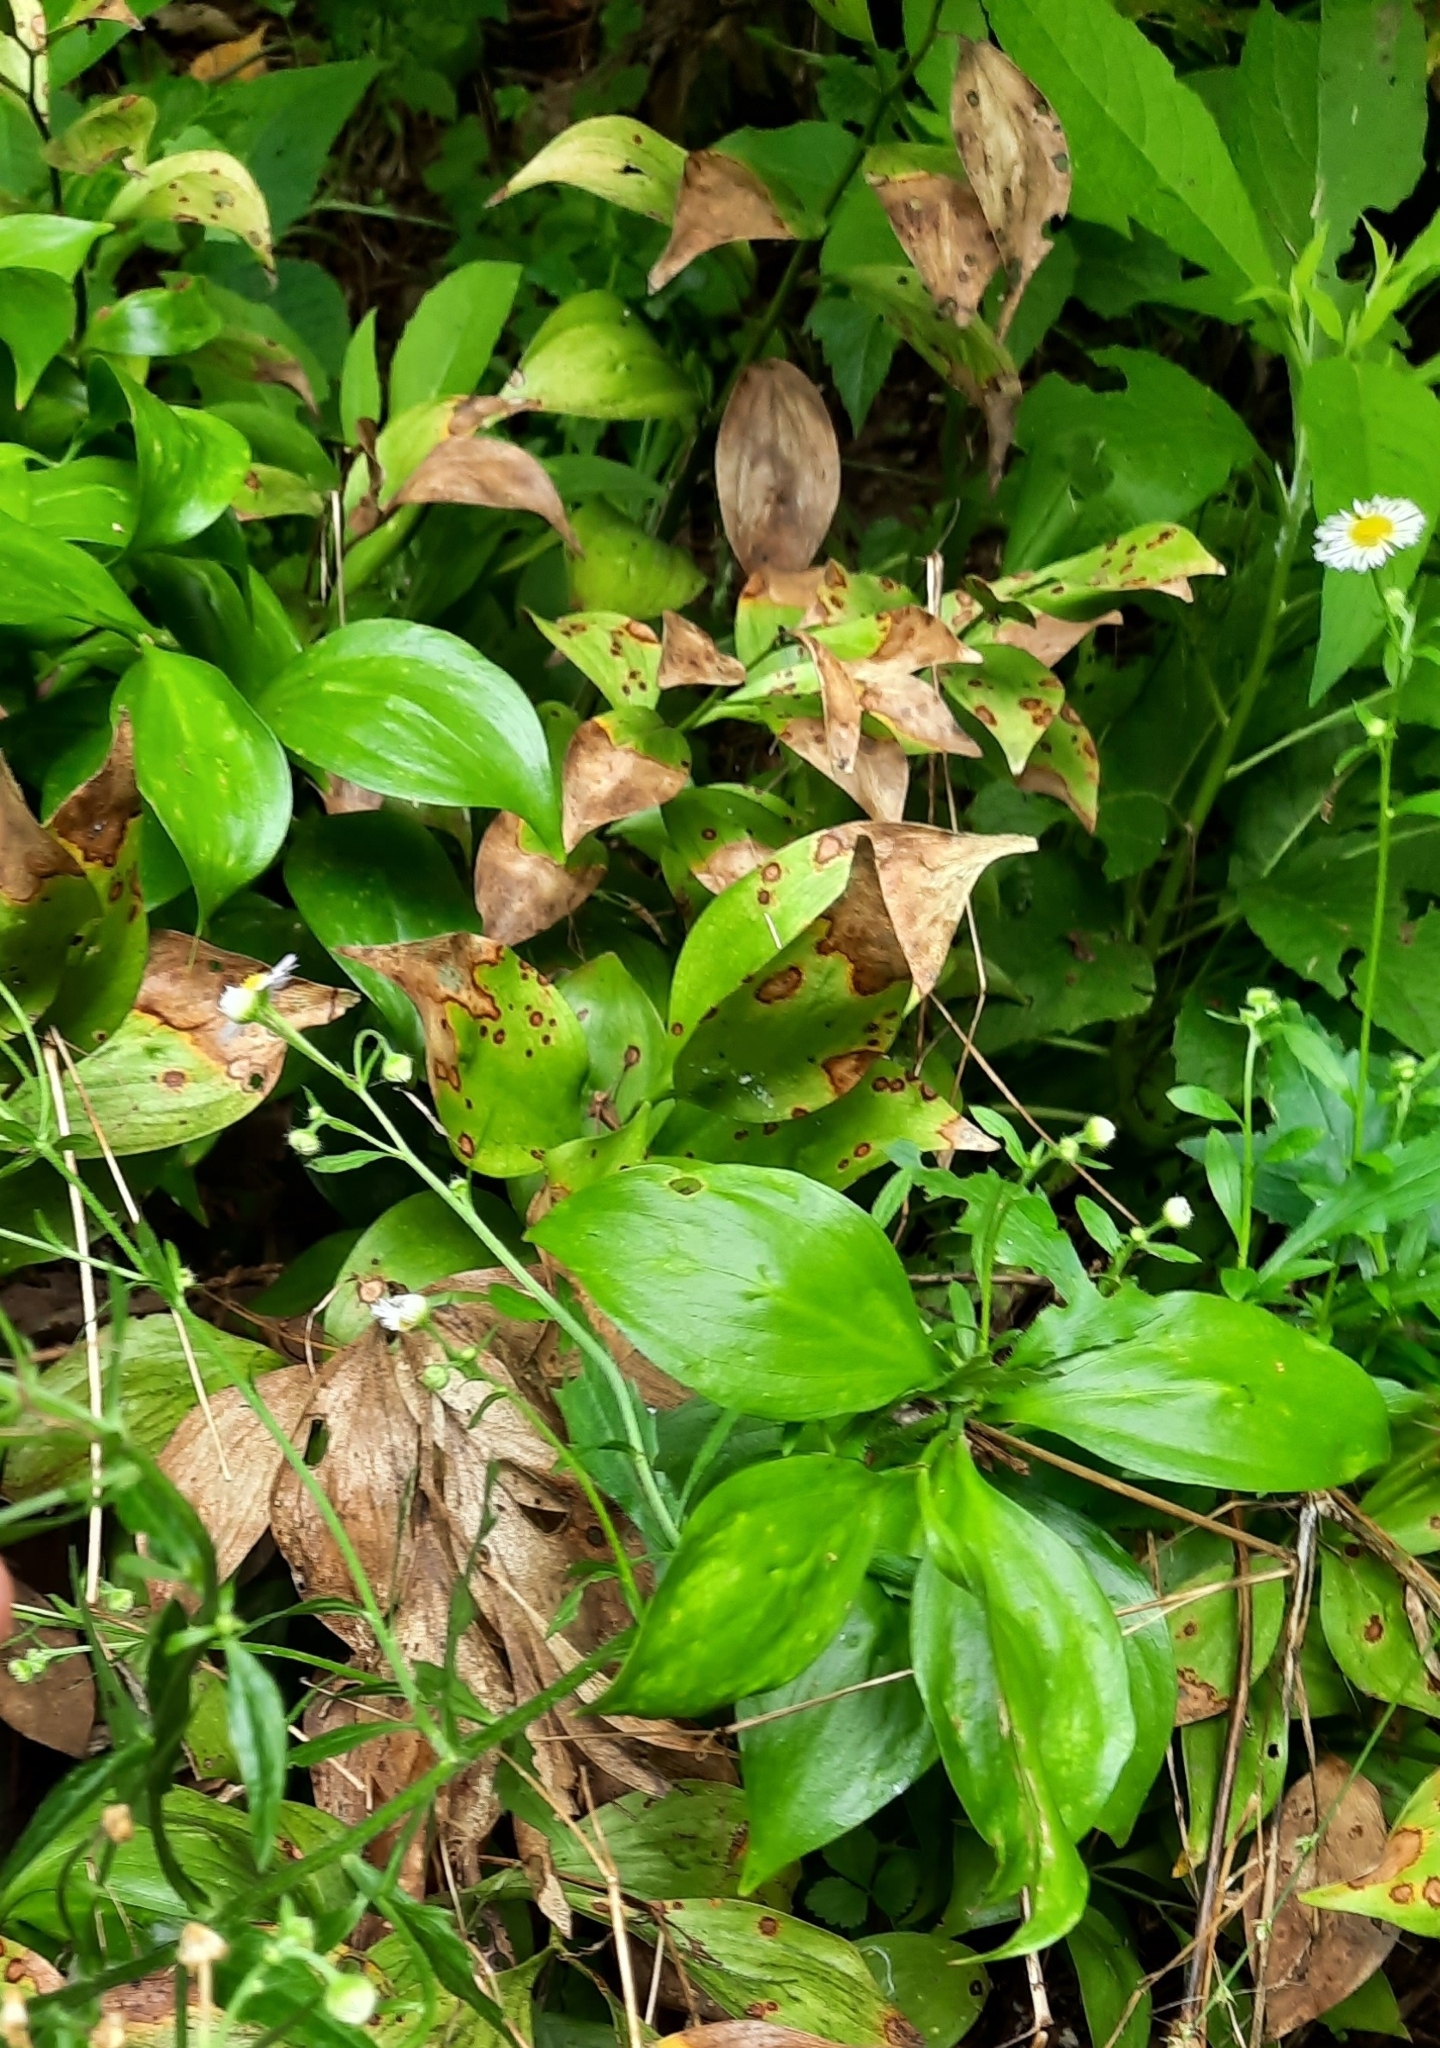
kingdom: Plantae
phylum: Tracheophyta
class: Liliopsida
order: Asparagales
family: Asparagaceae
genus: Ruscus
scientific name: Ruscus colchicus
